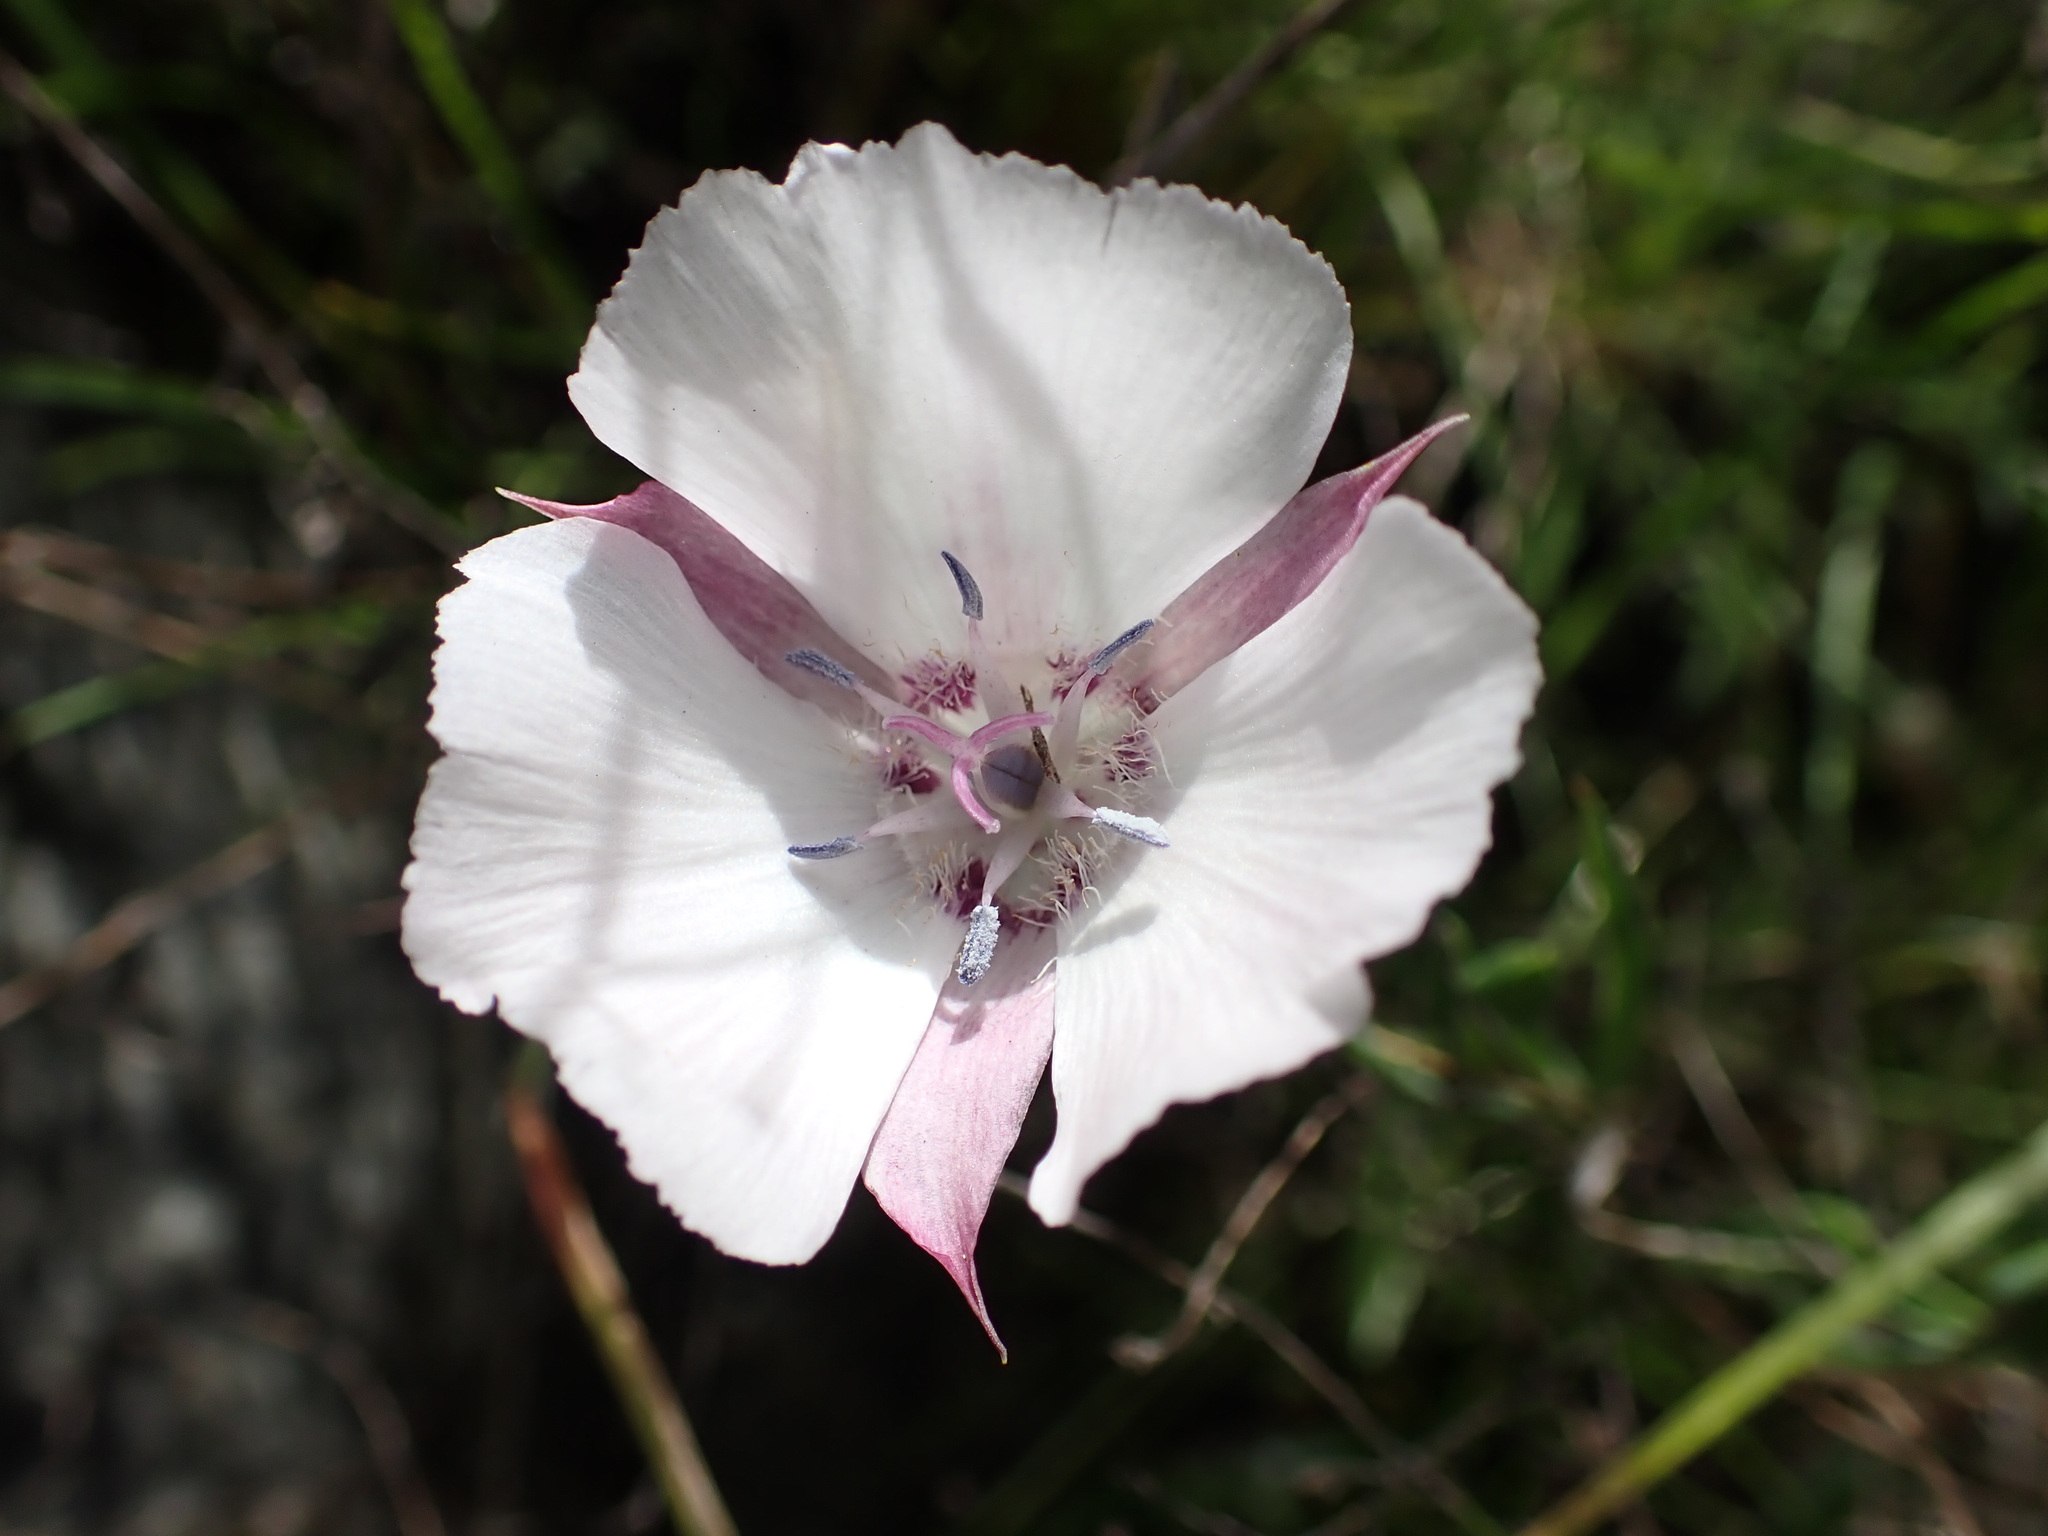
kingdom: Plantae
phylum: Tracheophyta
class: Liliopsida
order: Liliales
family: Liliaceae
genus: Calochortus
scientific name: Calochortus umbellatus
